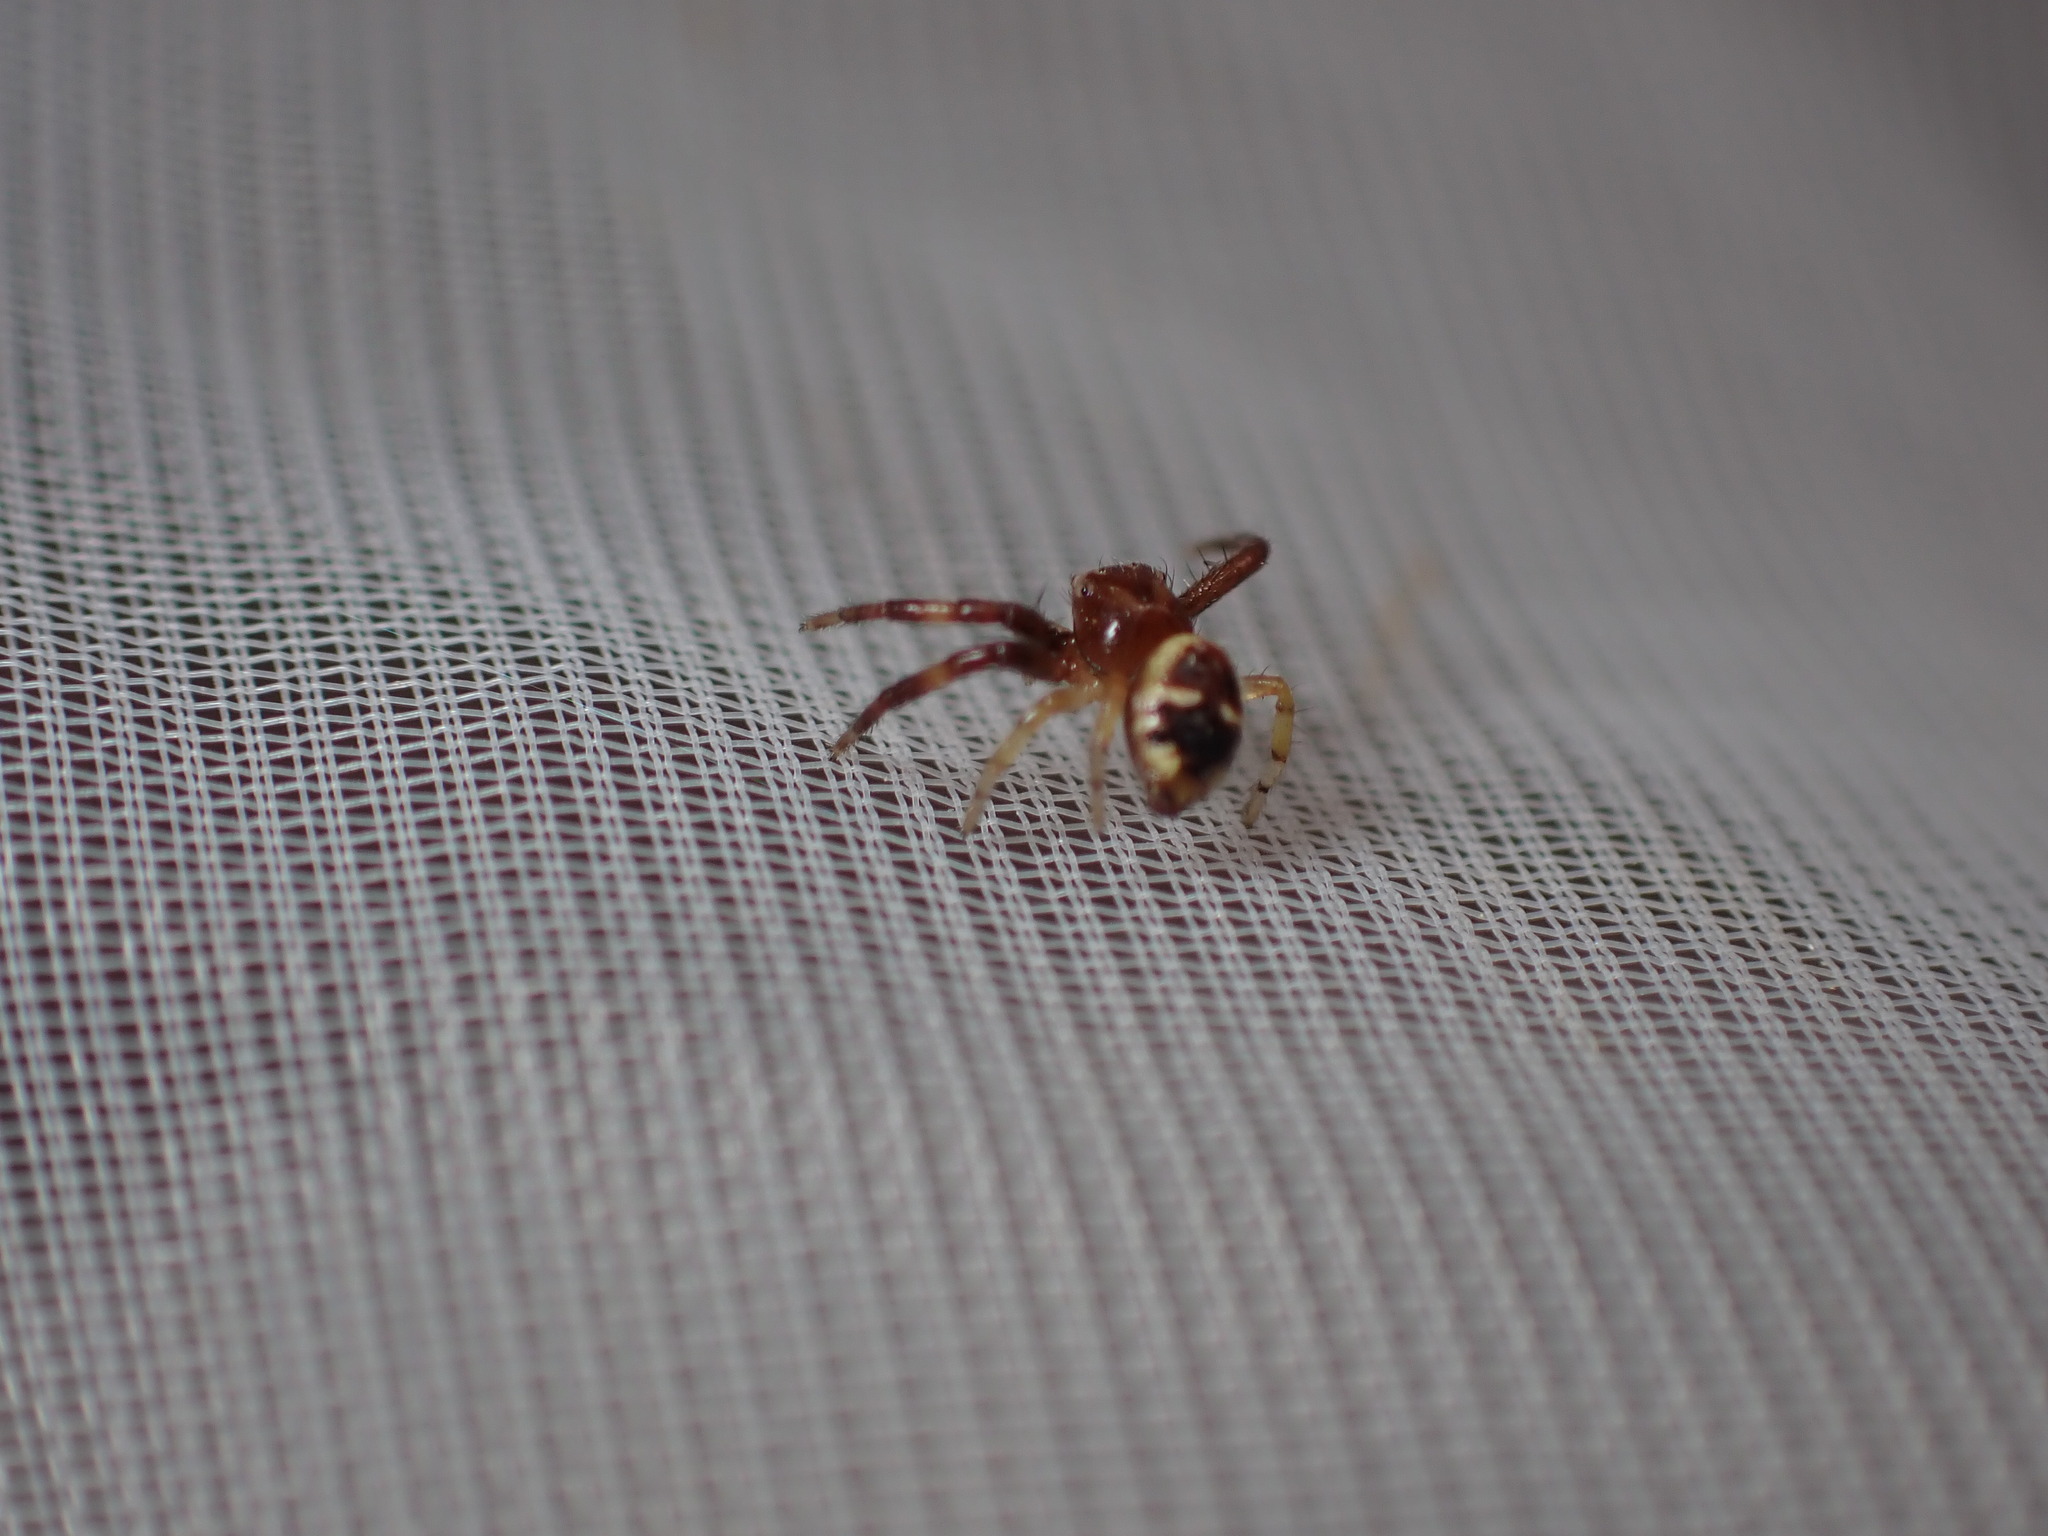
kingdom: Animalia
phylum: Arthropoda
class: Arachnida
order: Araneae
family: Thomisidae
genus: Synema
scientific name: Synema globosum
